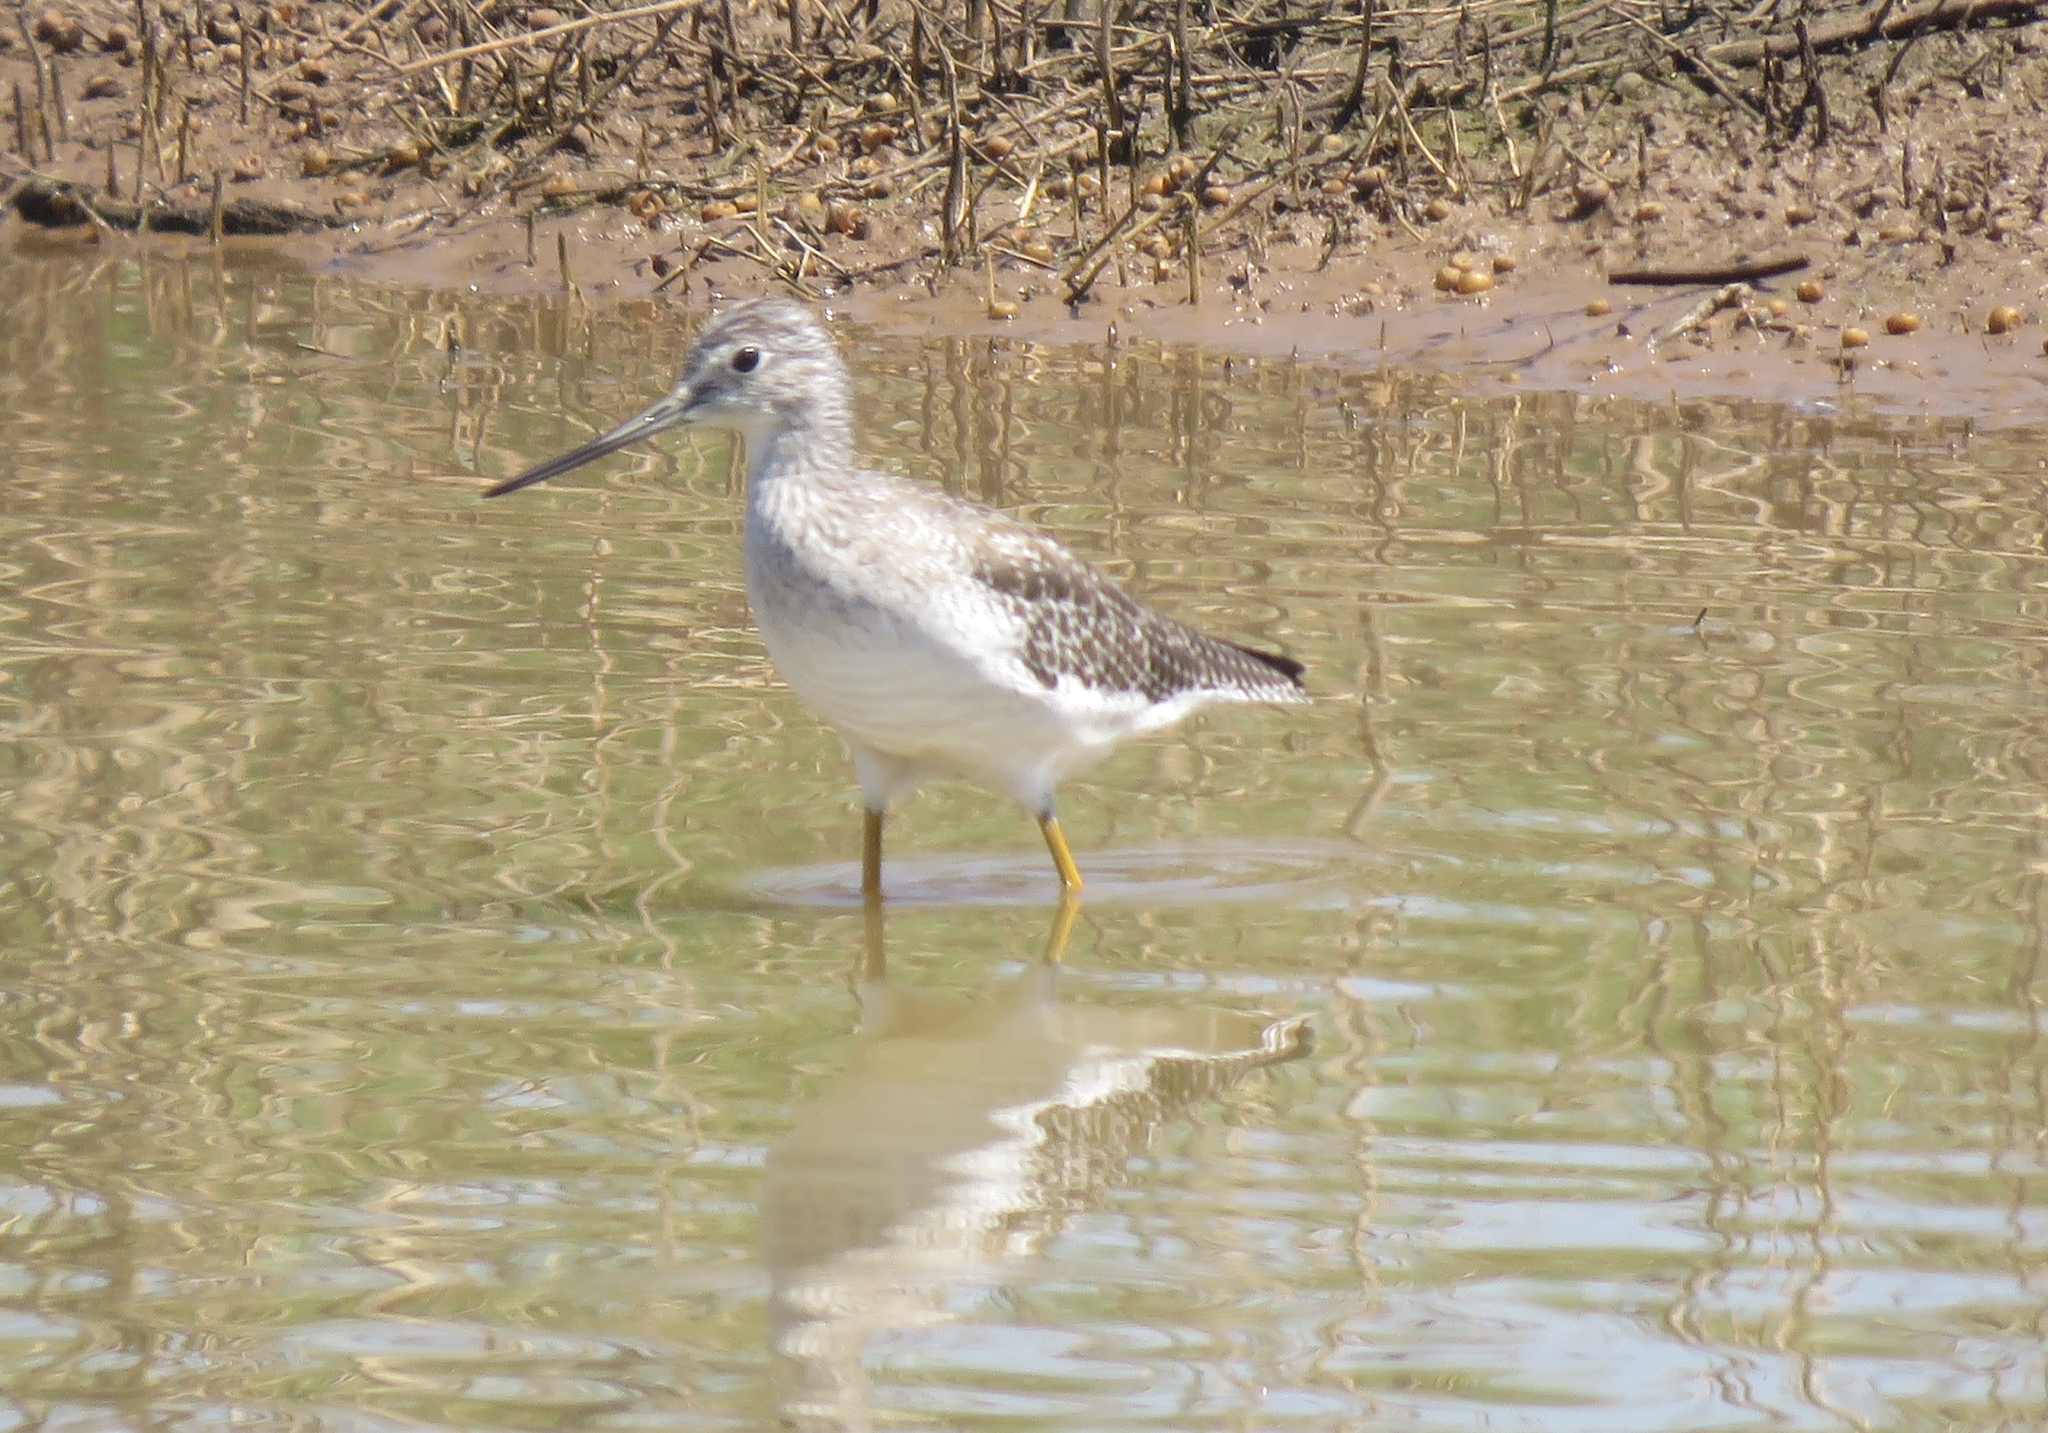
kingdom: Animalia
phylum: Chordata
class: Aves
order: Charadriiformes
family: Scolopacidae
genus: Tringa
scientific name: Tringa melanoleuca
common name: Greater yellowlegs
